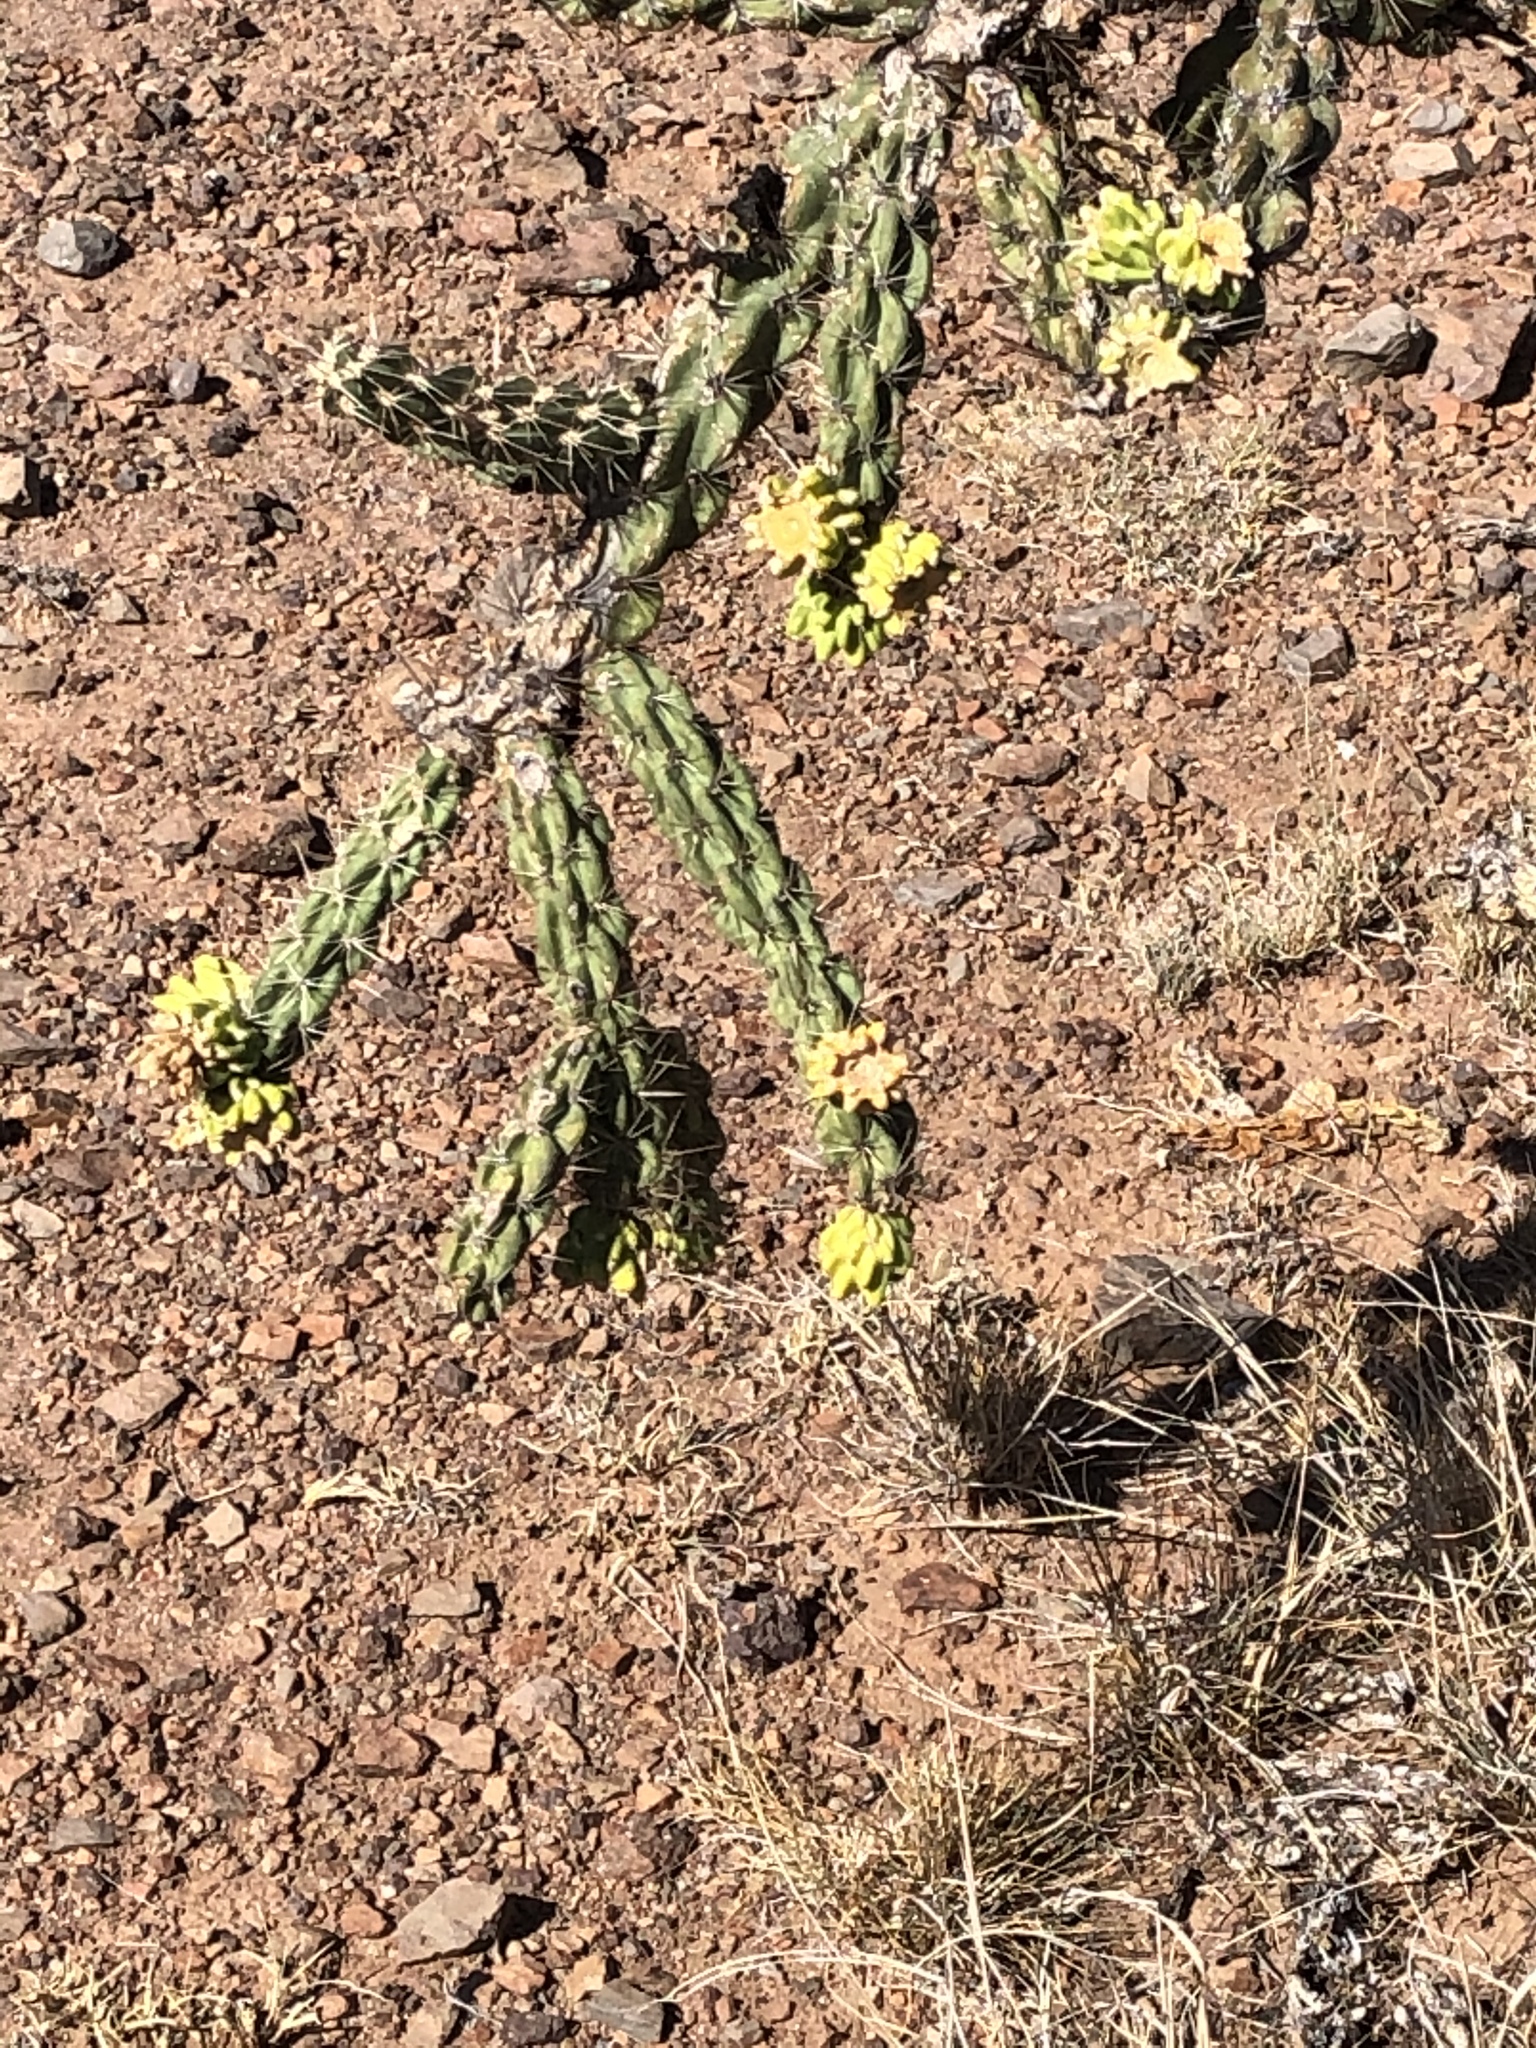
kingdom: Plantae
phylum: Tracheophyta
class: Magnoliopsida
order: Caryophyllales
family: Cactaceae
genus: Cylindropuntia
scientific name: Cylindropuntia imbricata
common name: Candelabrum cactus
